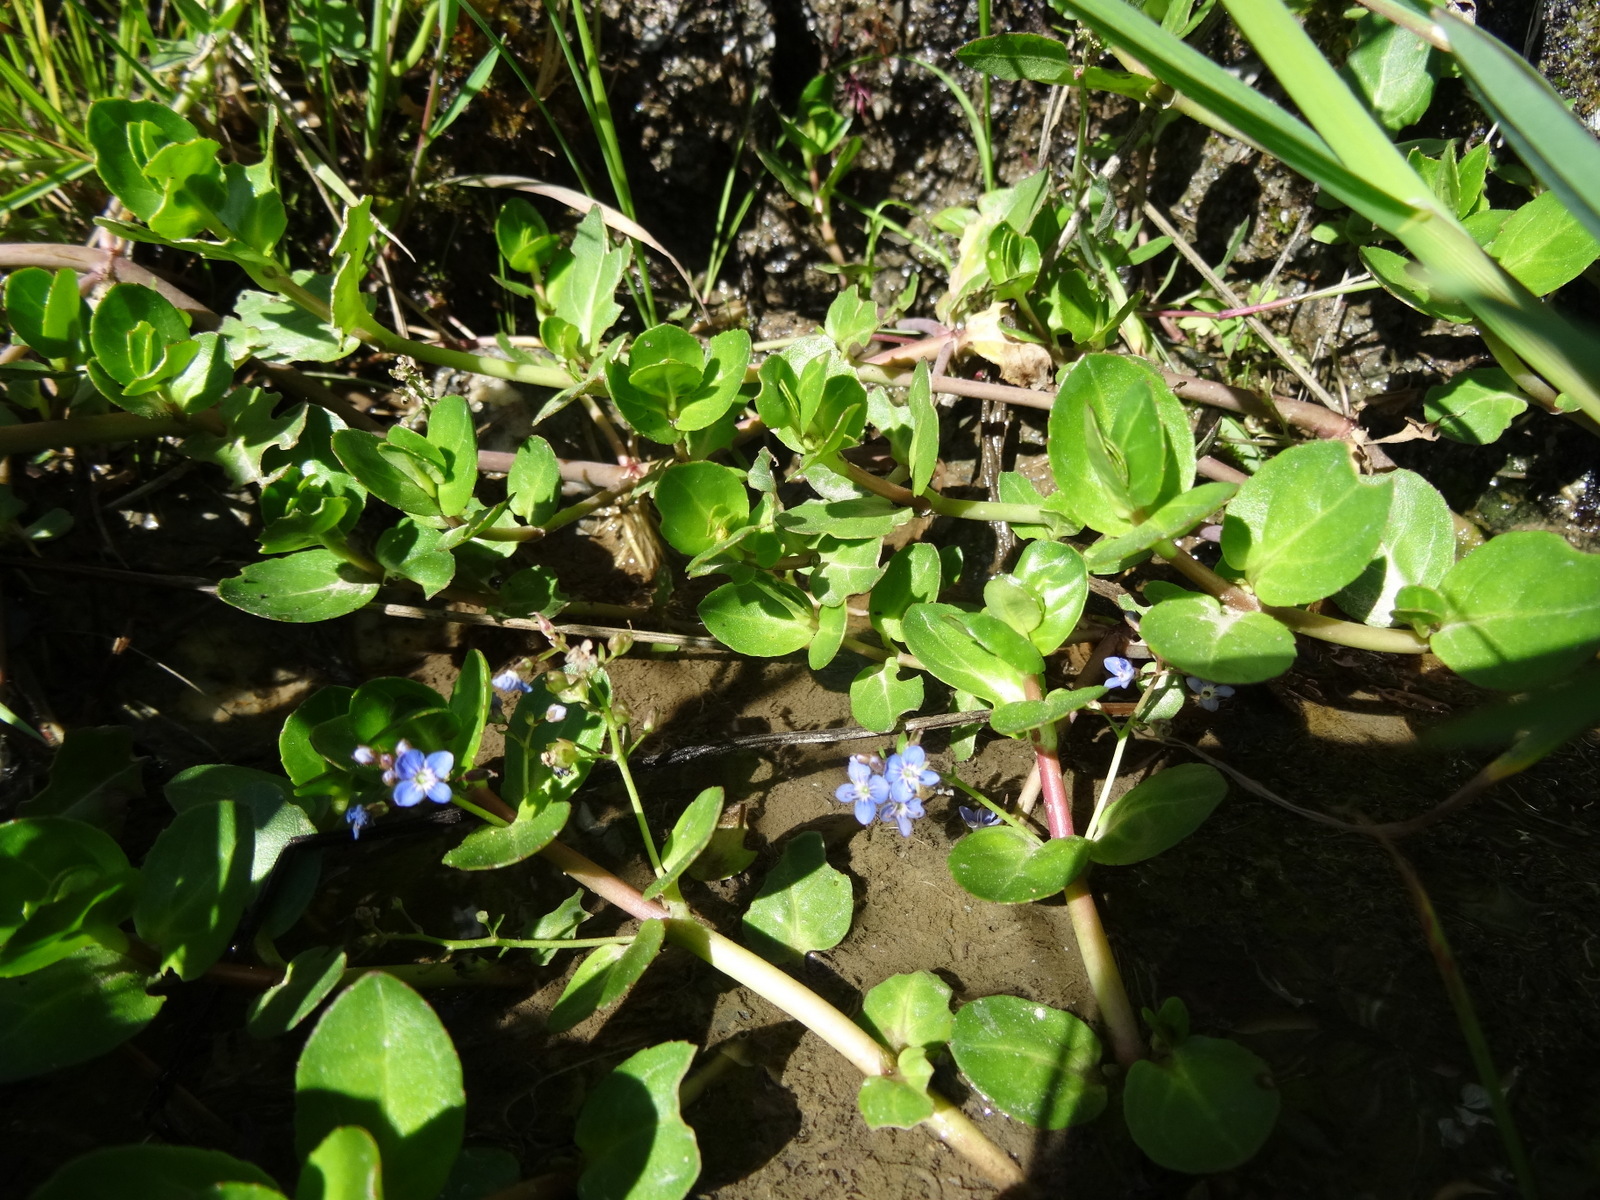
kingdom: Plantae
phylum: Tracheophyta
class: Magnoliopsida
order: Lamiales
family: Plantaginaceae
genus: Veronica
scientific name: Veronica beccabunga
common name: Brooklime
